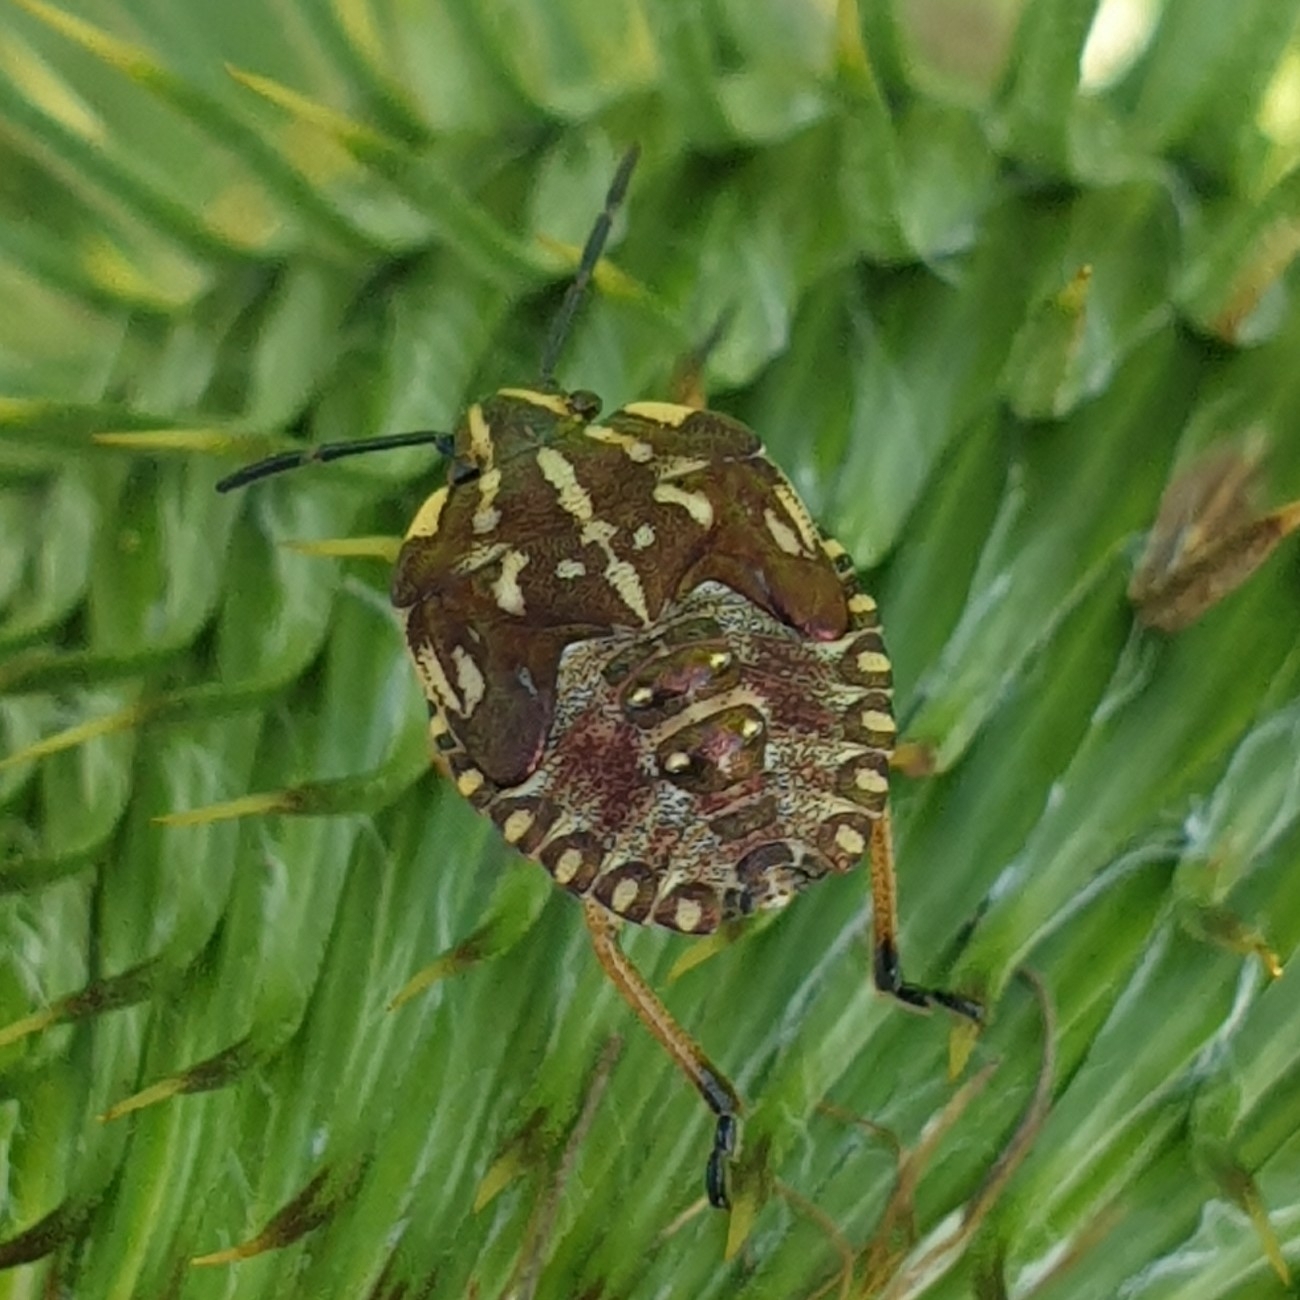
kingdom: Animalia
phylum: Arthropoda
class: Insecta
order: Hemiptera
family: Pentatomidae
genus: Carpocoris
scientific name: Carpocoris purpureipennis
